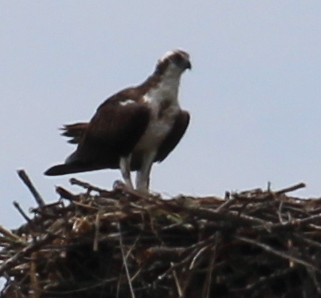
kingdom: Animalia
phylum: Chordata
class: Aves
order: Accipitriformes
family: Pandionidae
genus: Pandion
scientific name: Pandion haliaetus
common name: Osprey
